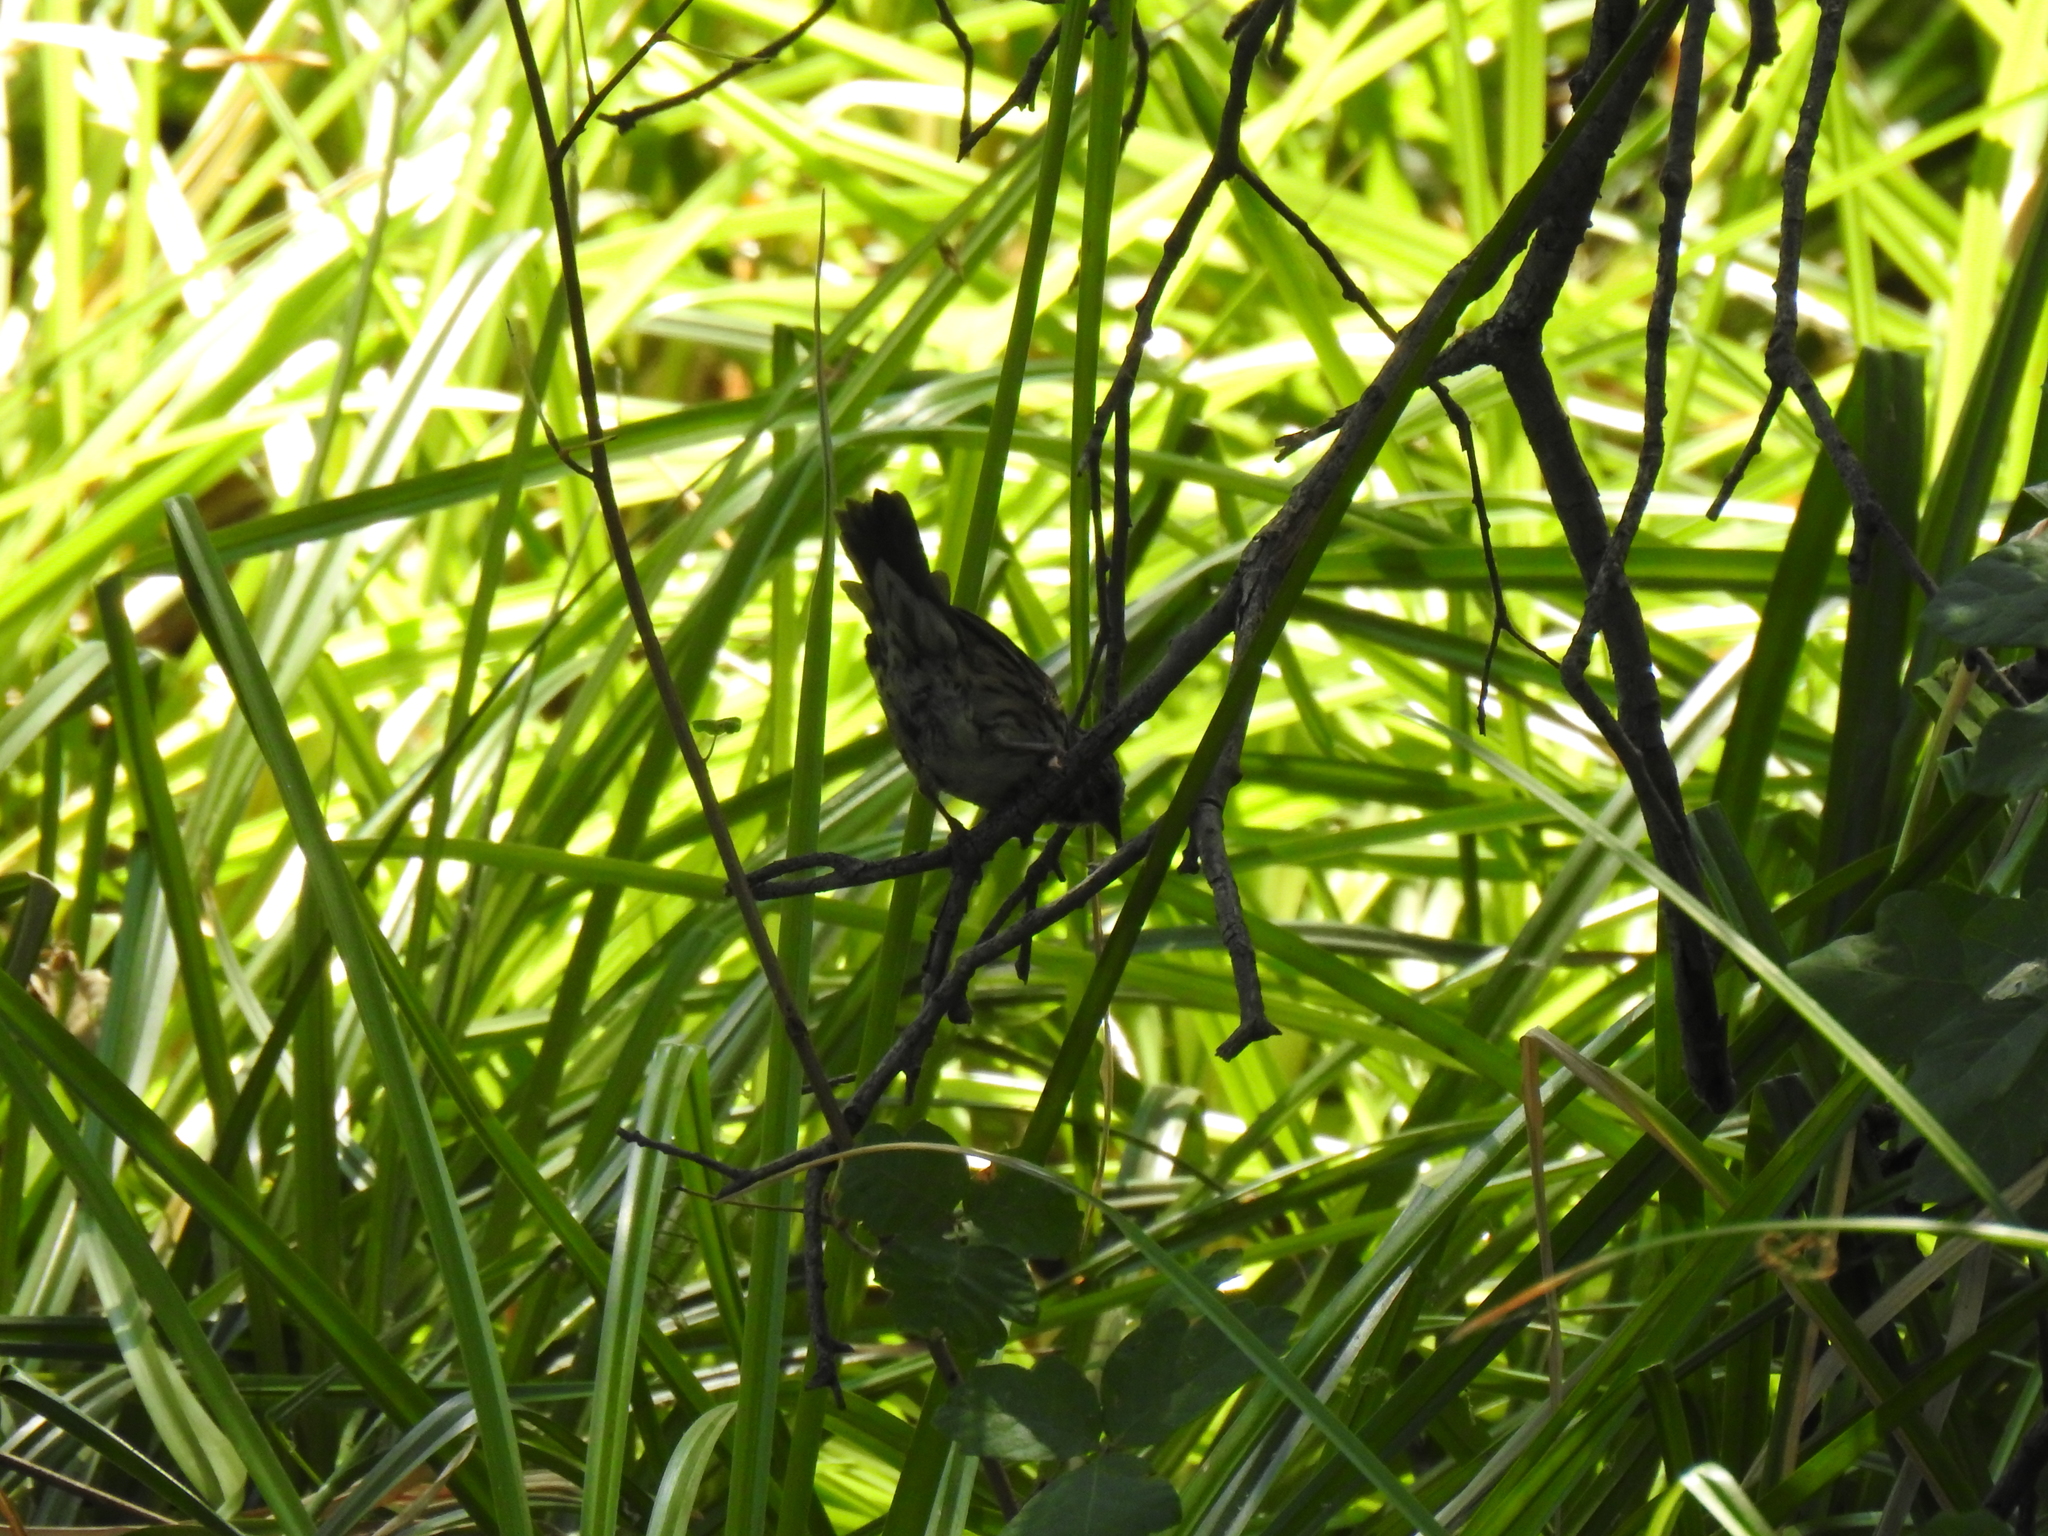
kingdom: Animalia
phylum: Chordata
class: Aves
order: Passeriformes
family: Fringillidae
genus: Spinus
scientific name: Spinus pinus
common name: Pine siskin
